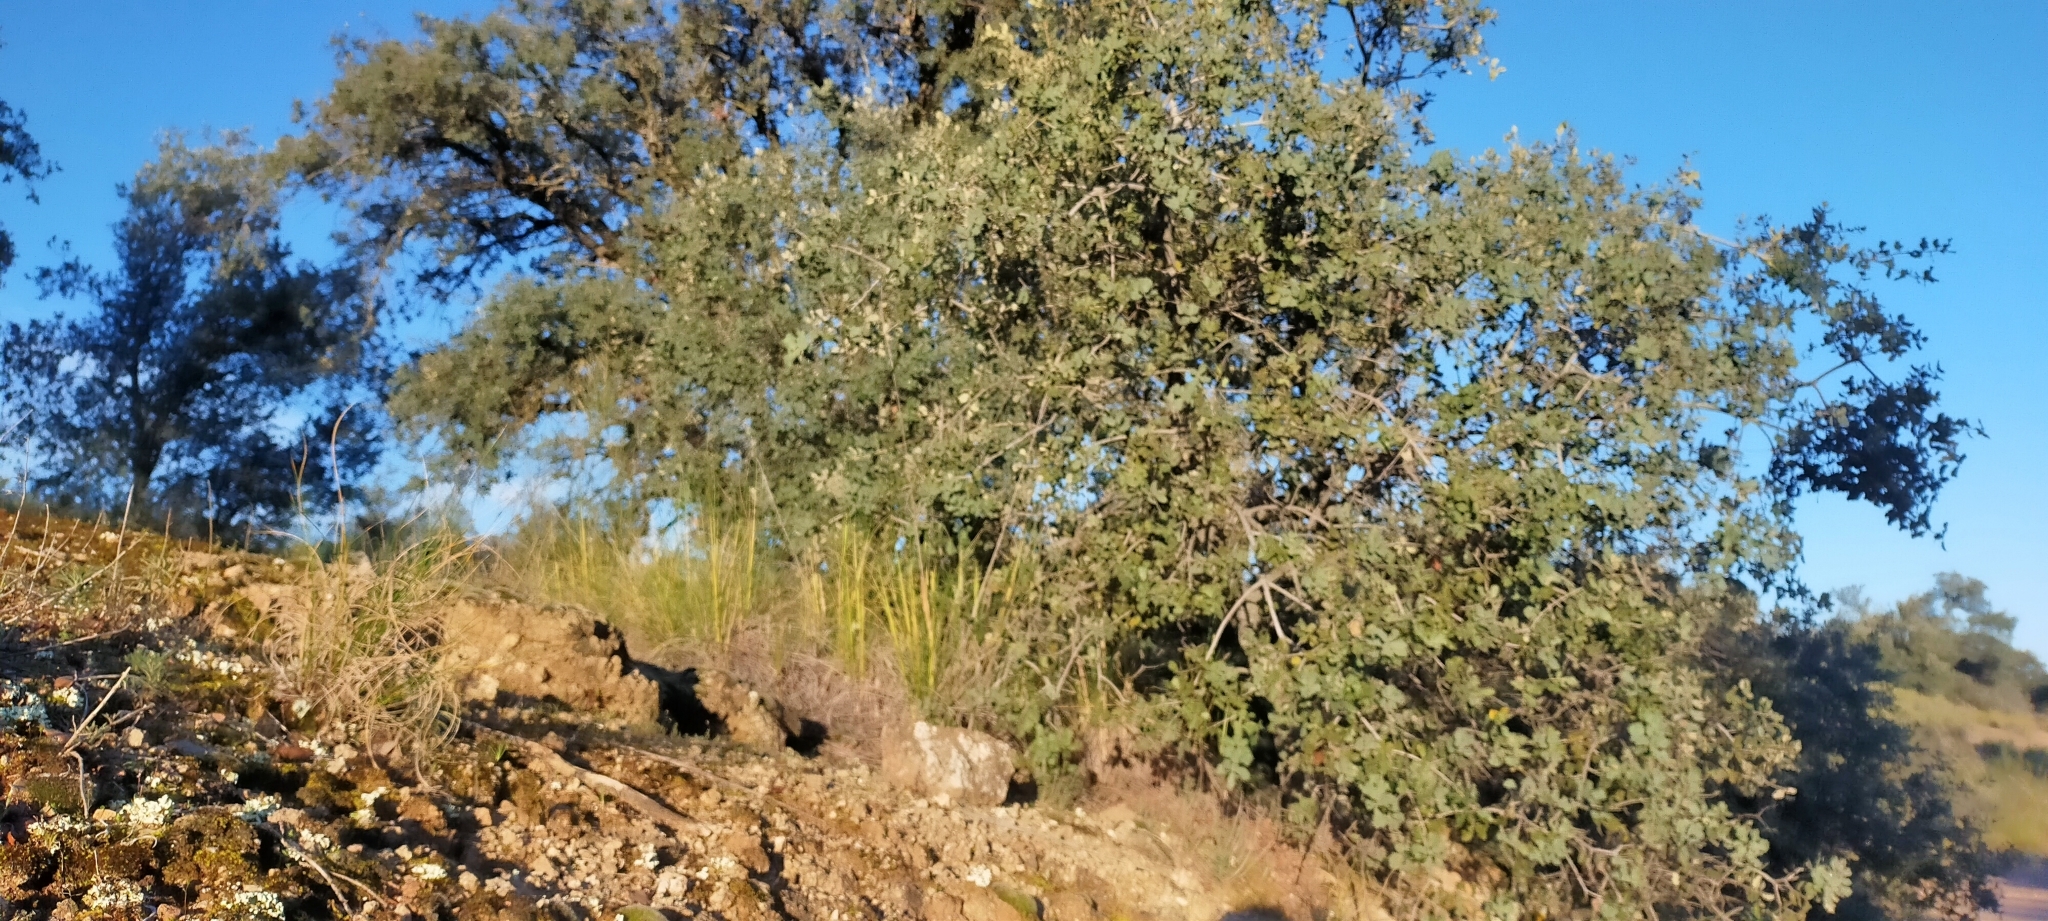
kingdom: Plantae
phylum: Tracheophyta
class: Magnoliopsida
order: Fagales
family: Fagaceae
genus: Quercus
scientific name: Quercus rotundifolia
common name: Holm oak
